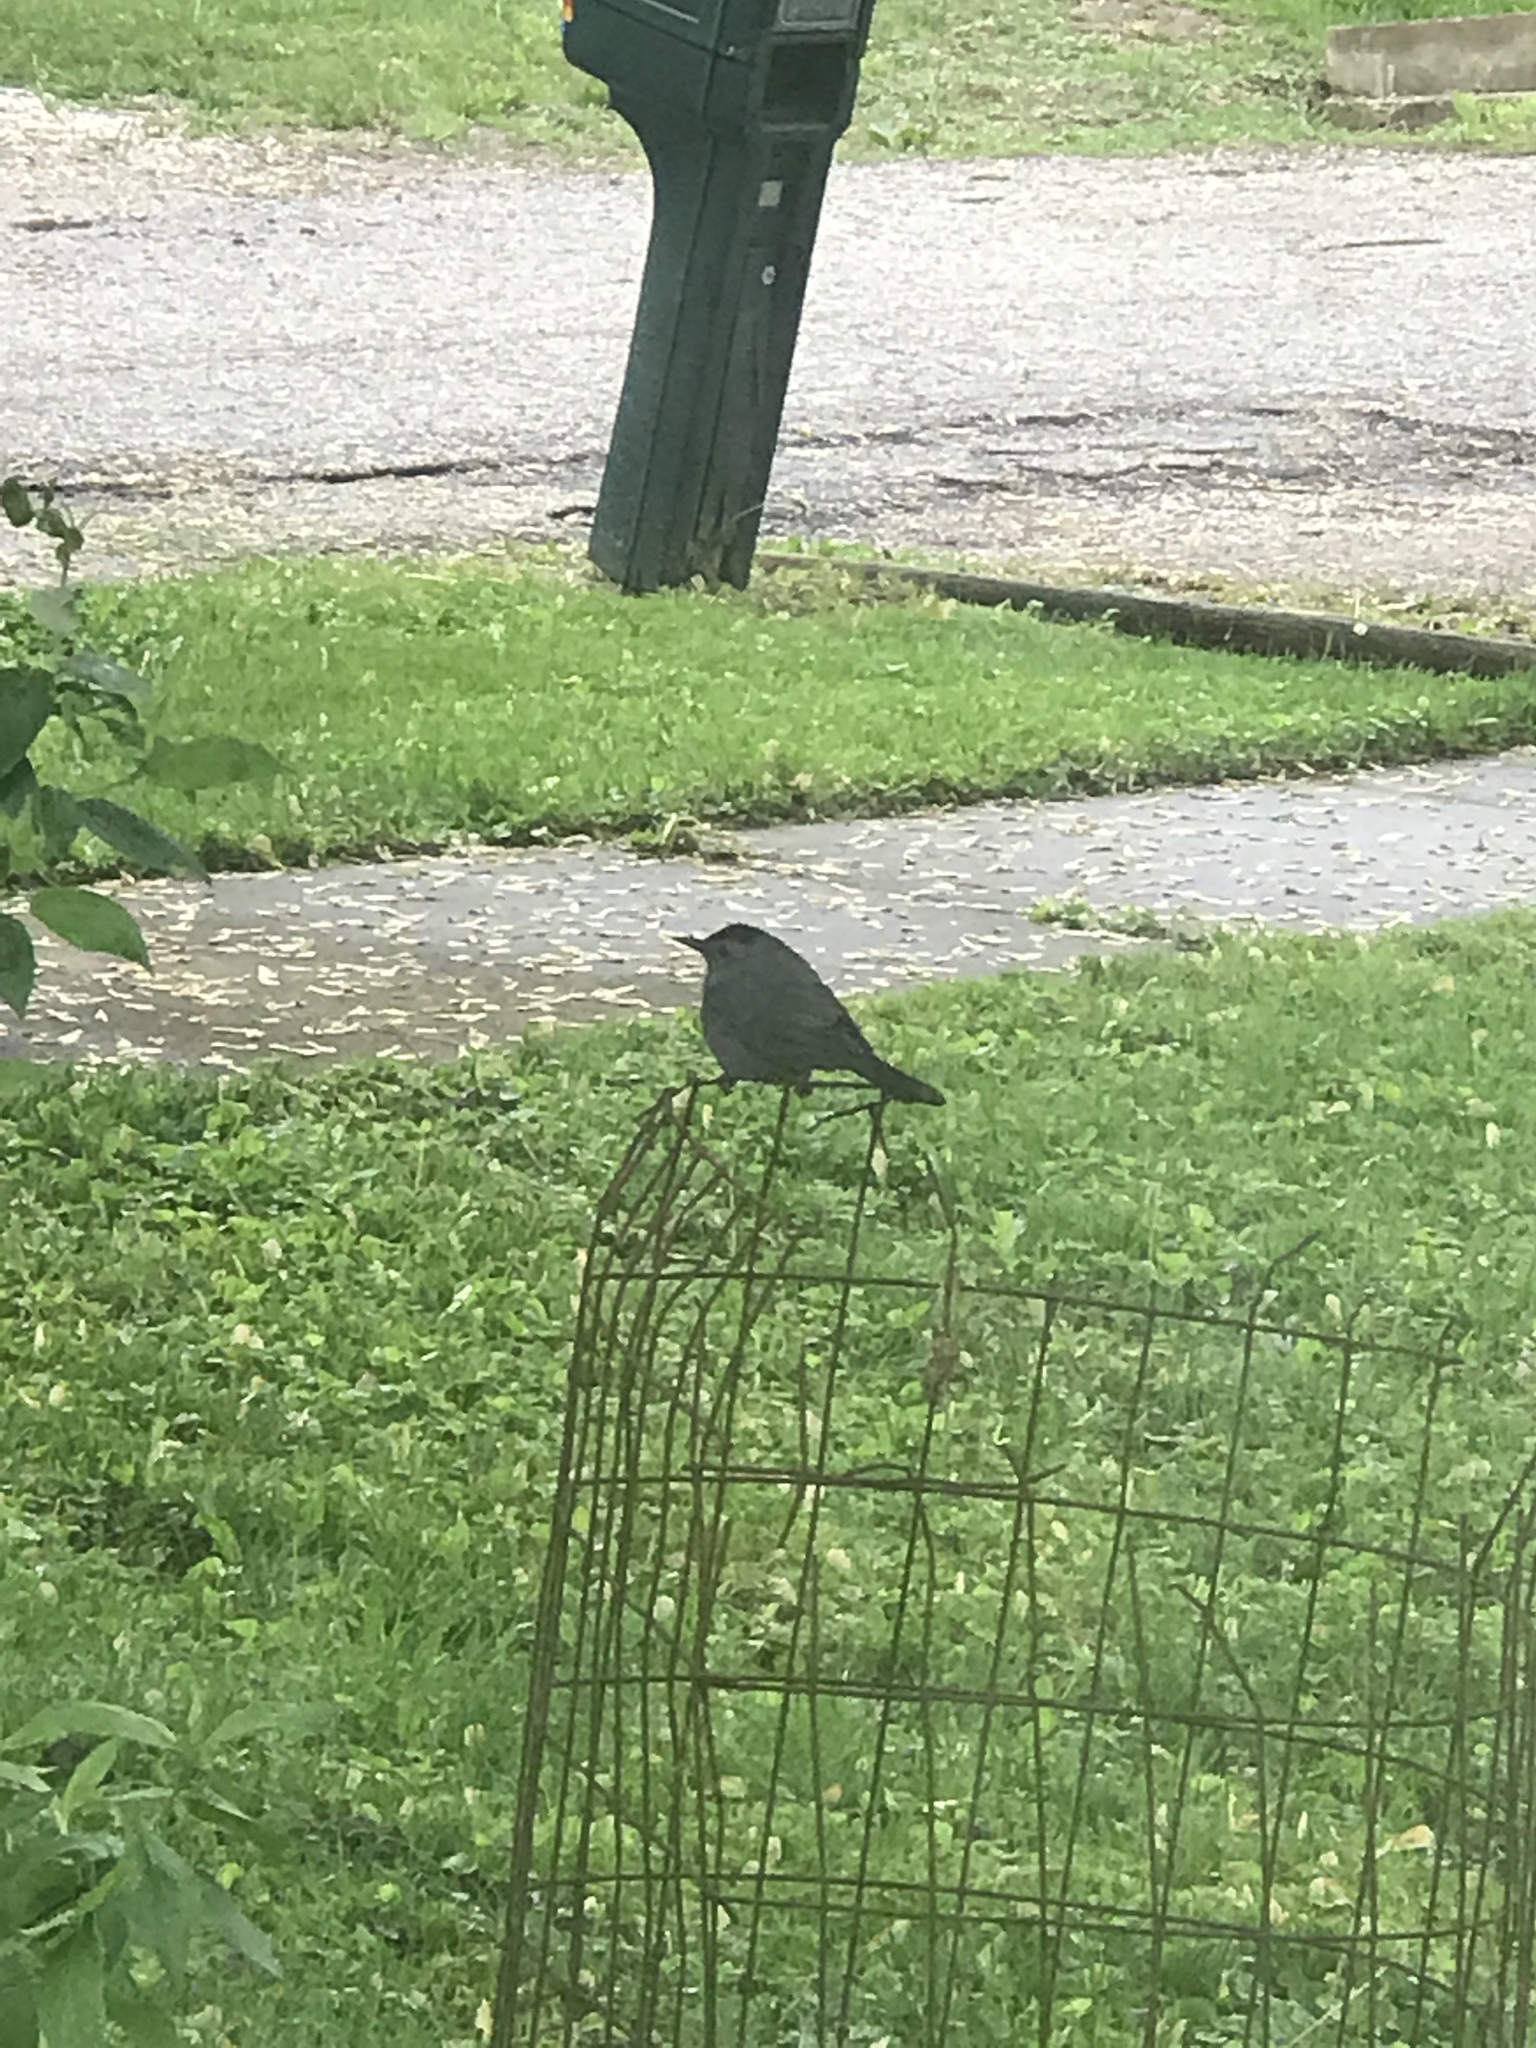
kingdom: Animalia
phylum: Chordata
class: Aves
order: Passeriformes
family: Mimidae
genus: Dumetella
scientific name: Dumetella carolinensis
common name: Gray catbird
